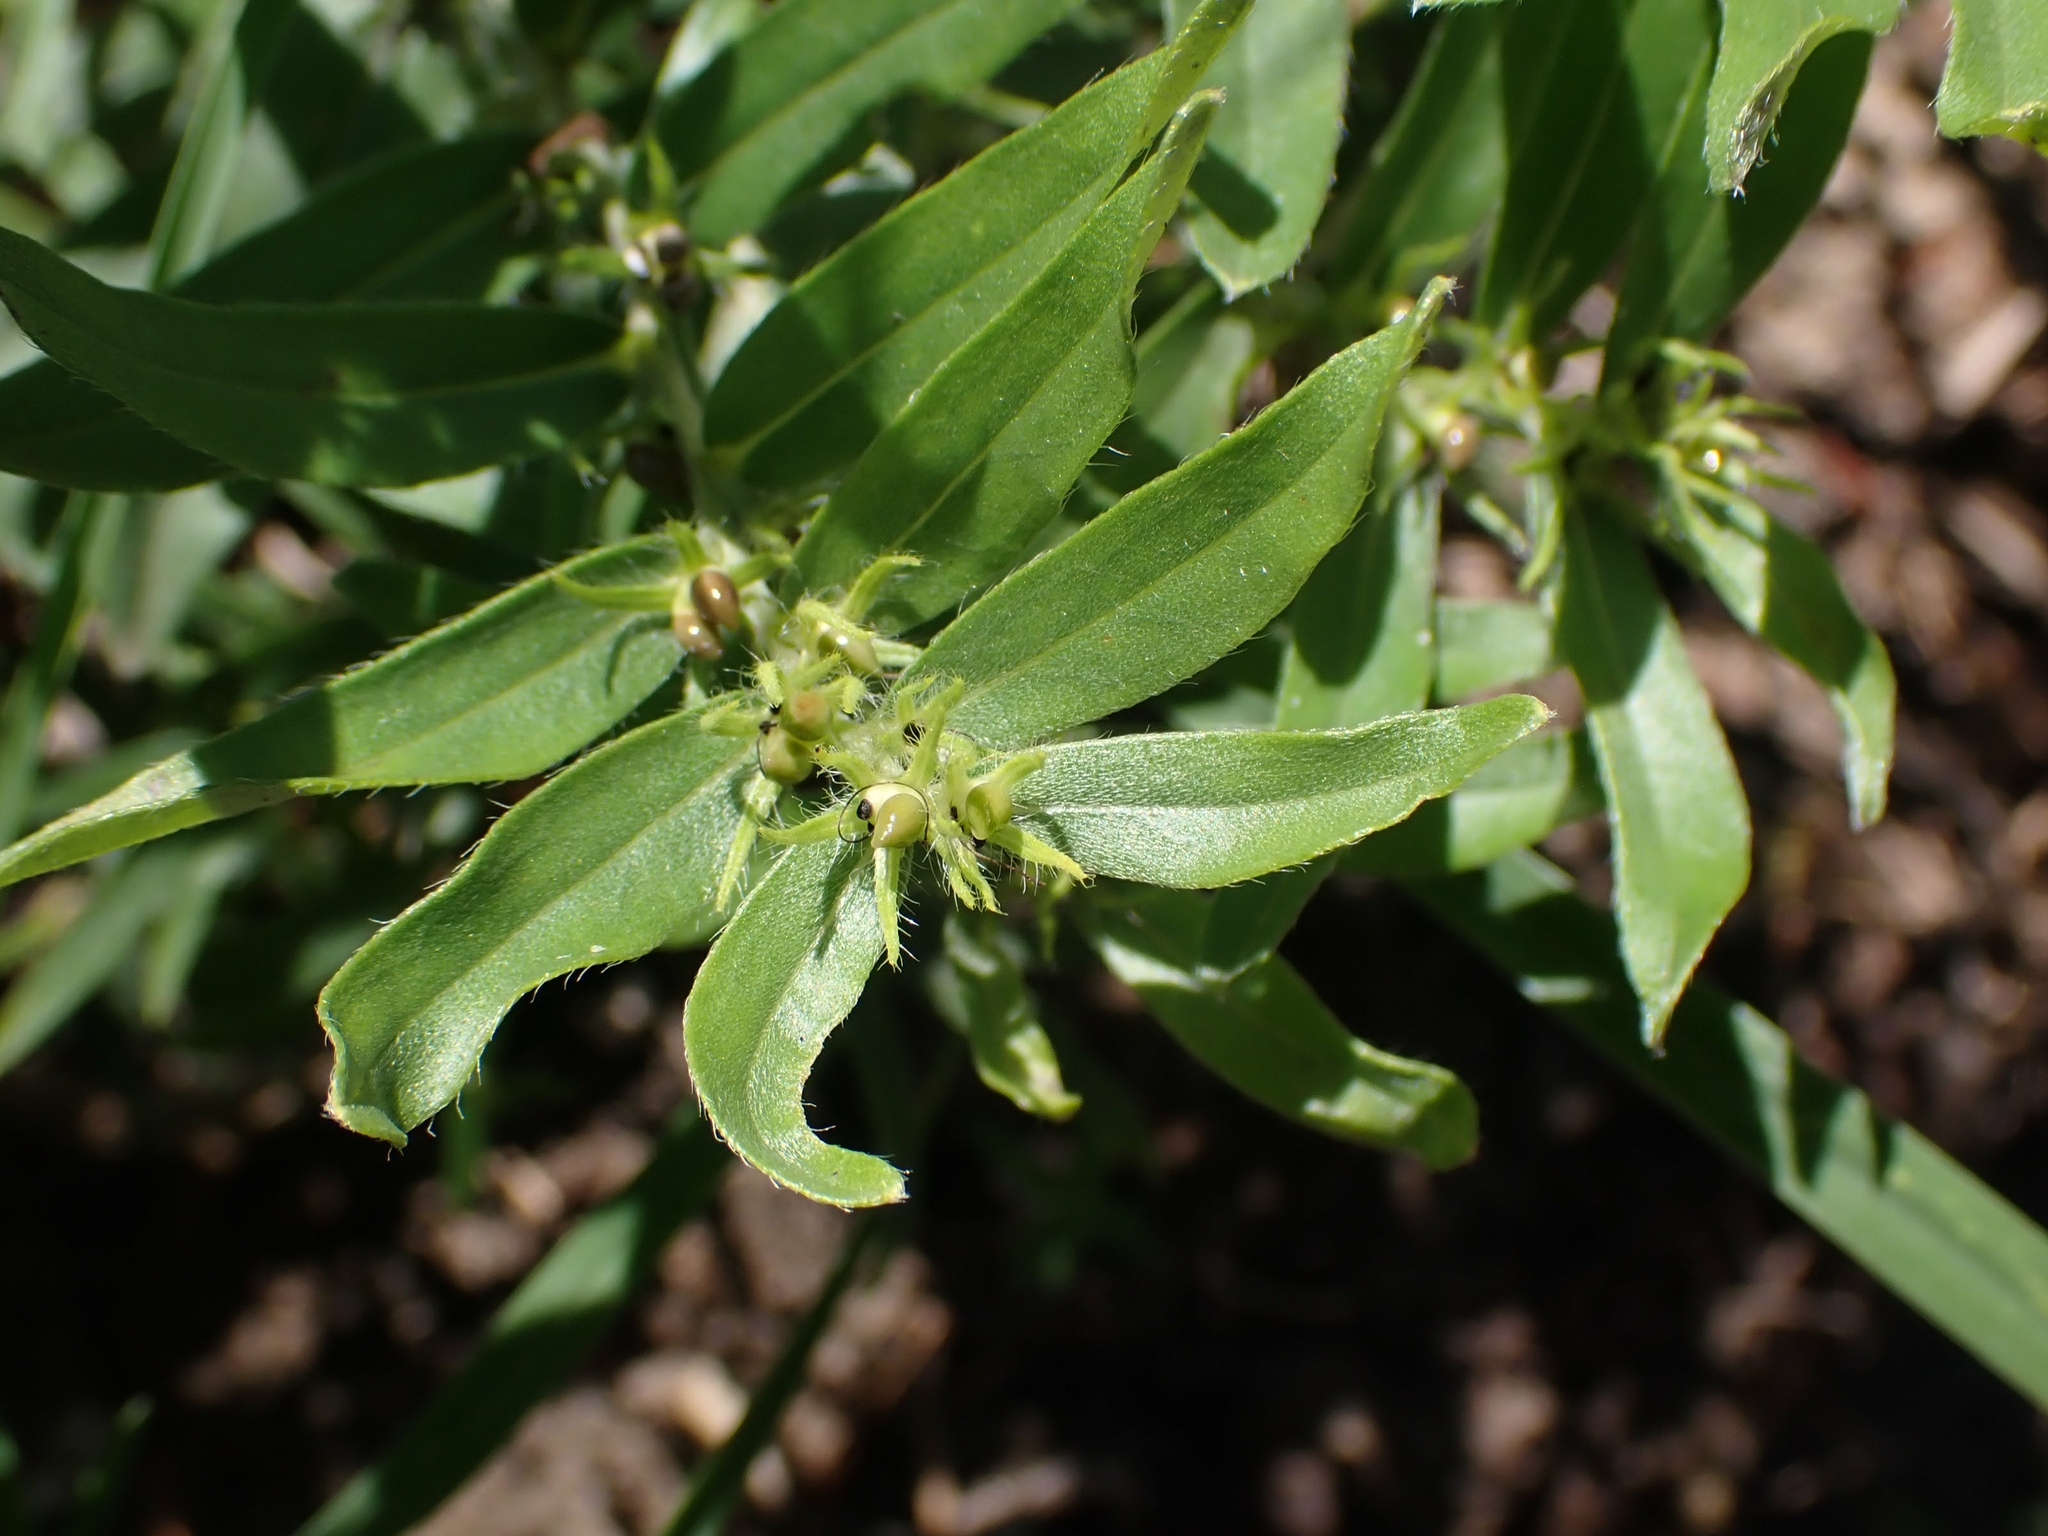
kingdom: Plantae
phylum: Tracheophyta
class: Magnoliopsida
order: Boraginales
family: Boraginaceae
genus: Lithospermum
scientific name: Lithospermum canescens
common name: Hoary puccoon
